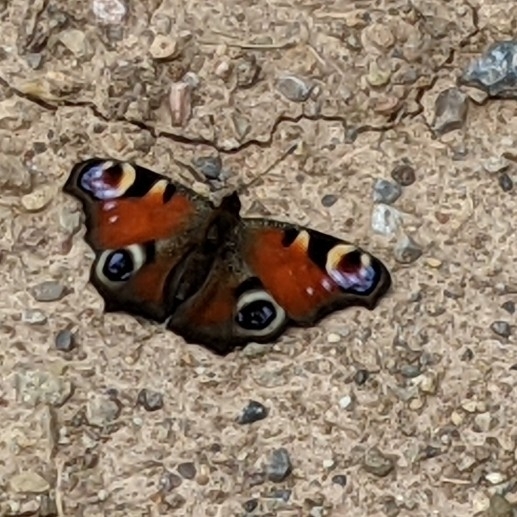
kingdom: Animalia
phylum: Arthropoda
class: Insecta
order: Lepidoptera
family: Nymphalidae
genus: Aglais
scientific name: Aglais io
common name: Peacock
